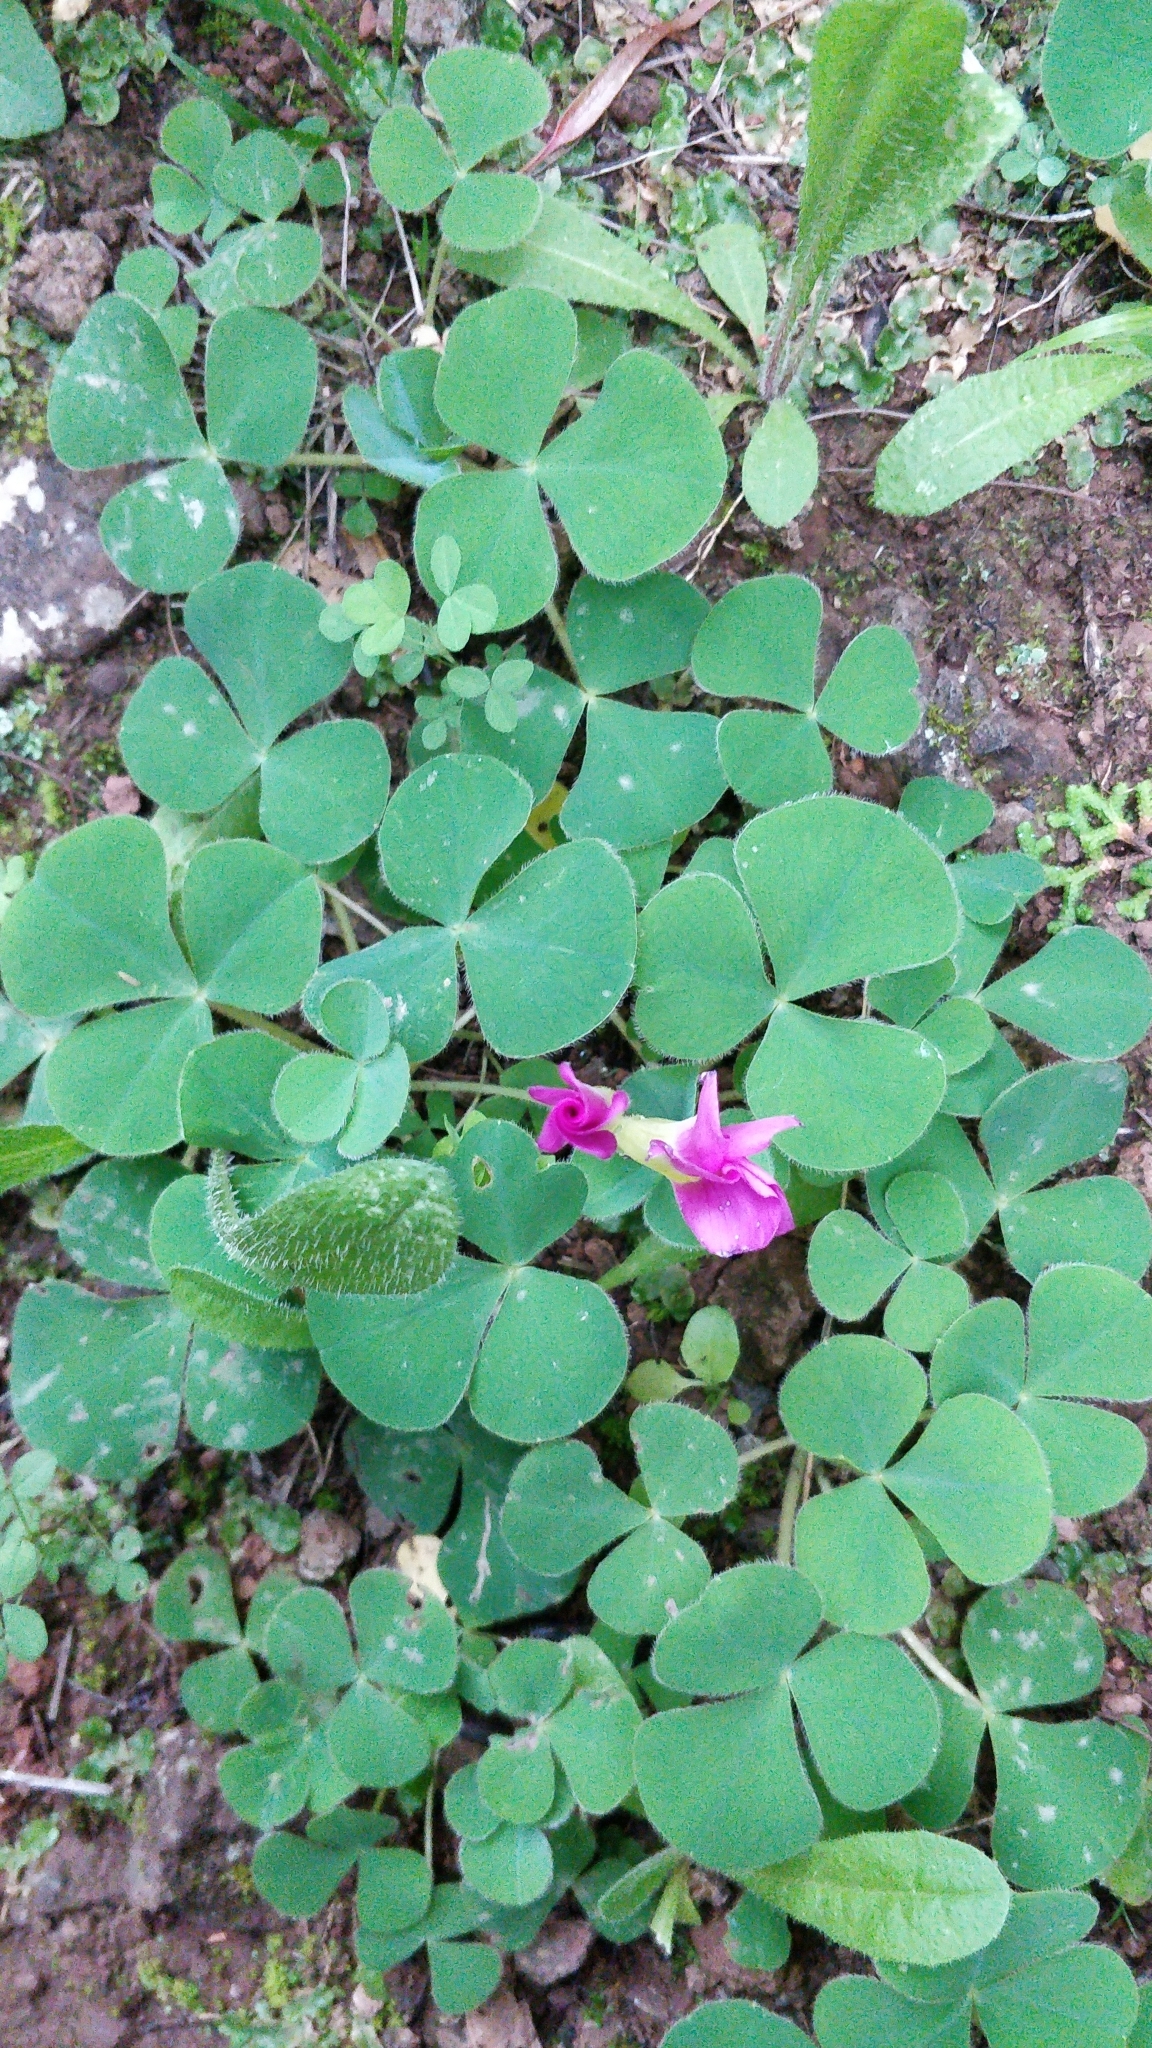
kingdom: Plantae
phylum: Tracheophyta
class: Magnoliopsida
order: Oxalidales
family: Oxalidaceae
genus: Oxalis
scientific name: Oxalis purpurea
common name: Purple woodsorrel
